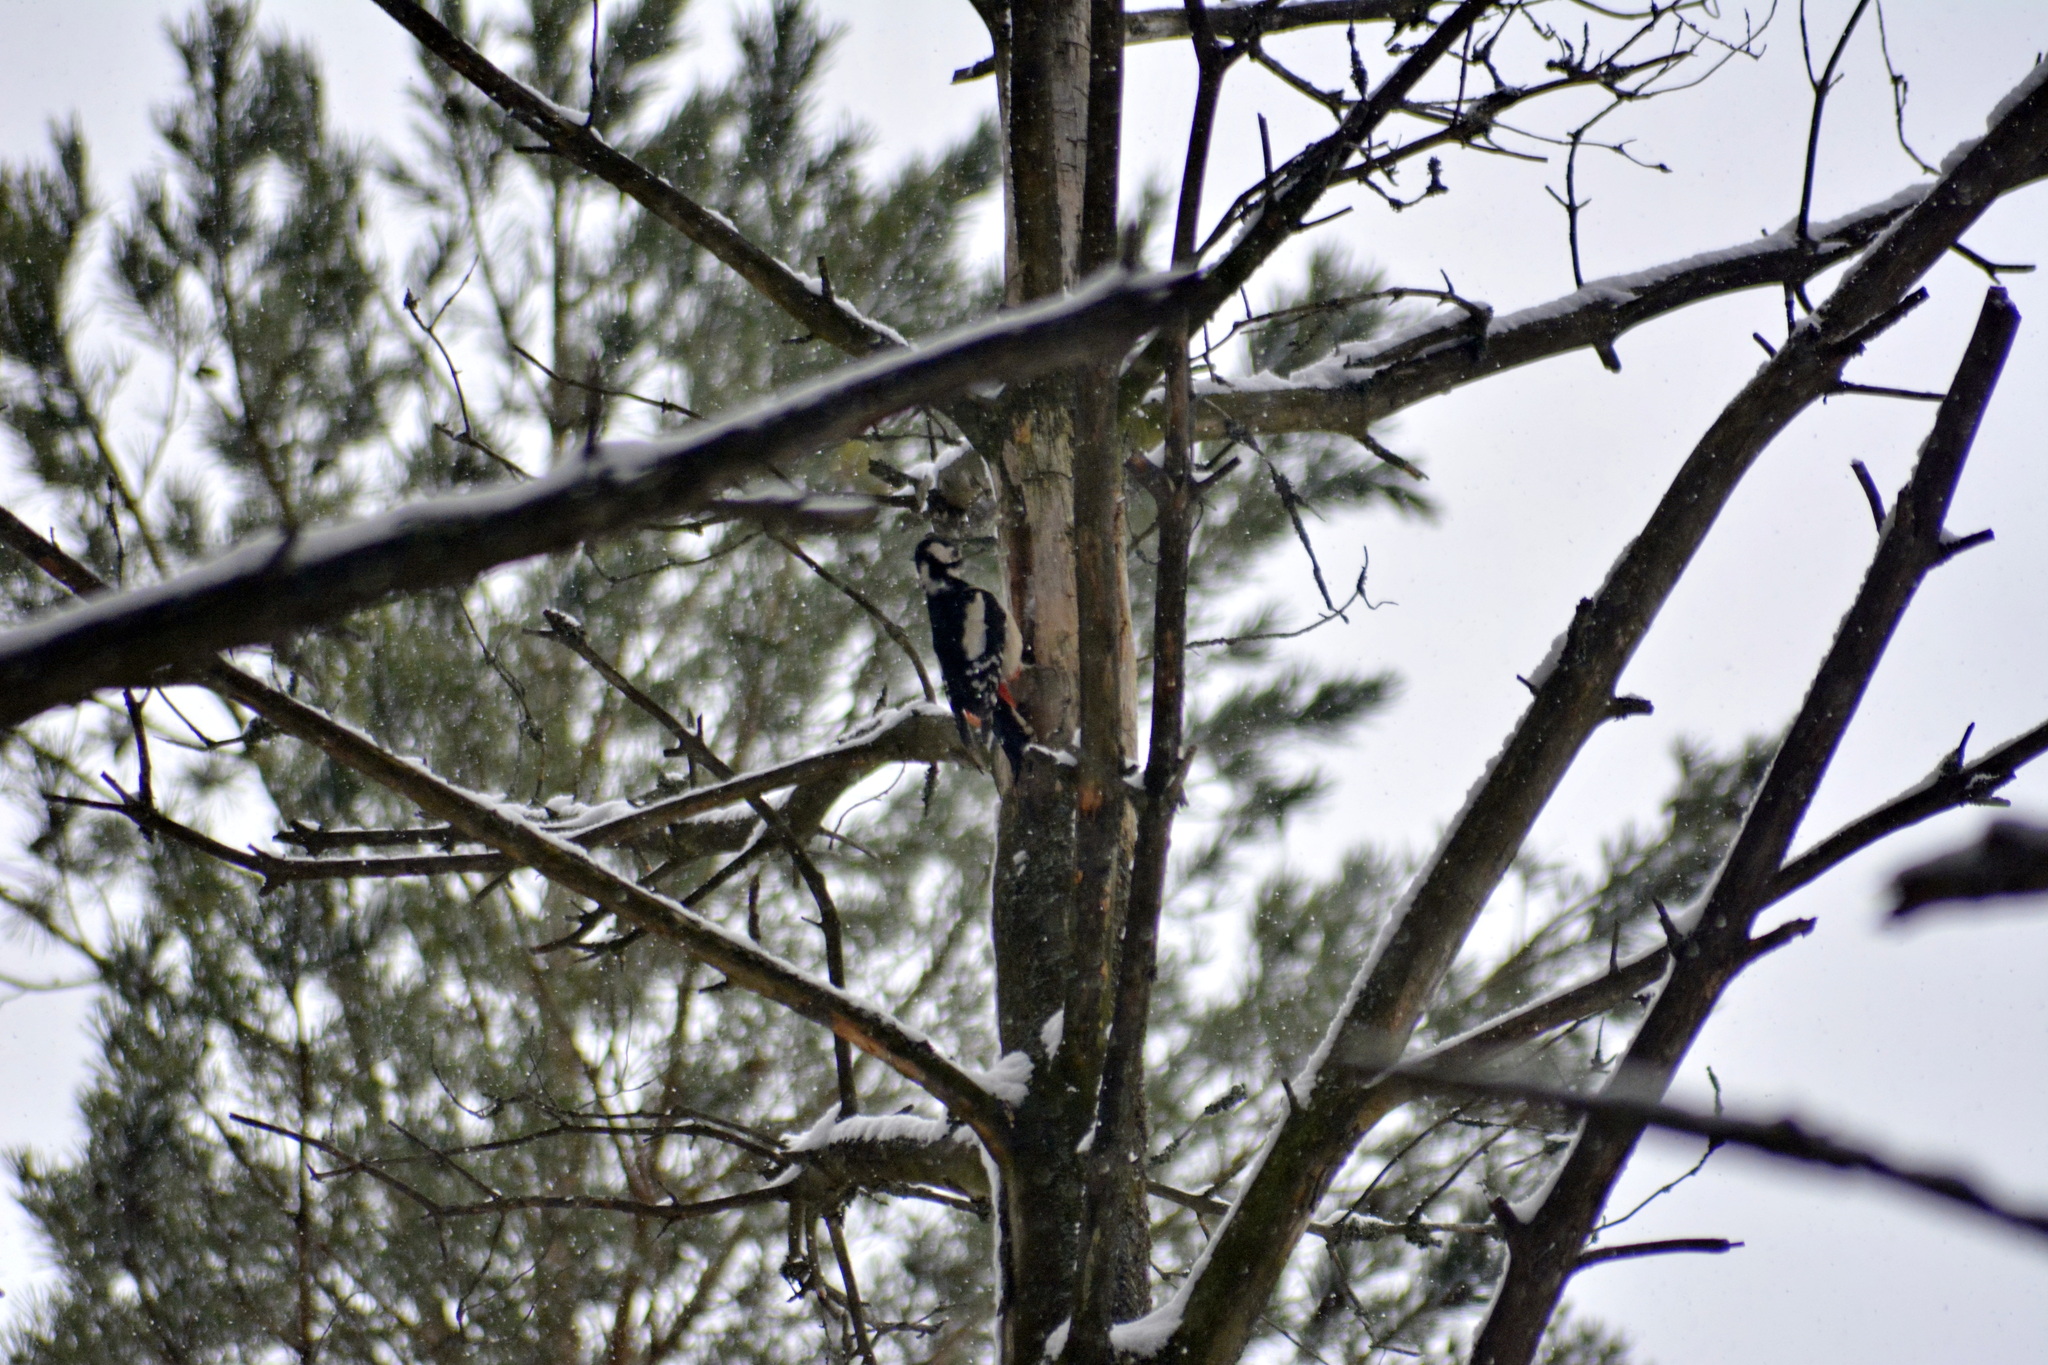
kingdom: Animalia
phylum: Chordata
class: Aves
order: Piciformes
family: Picidae
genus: Dendrocopos
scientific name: Dendrocopos major
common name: Great spotted woodpecker
